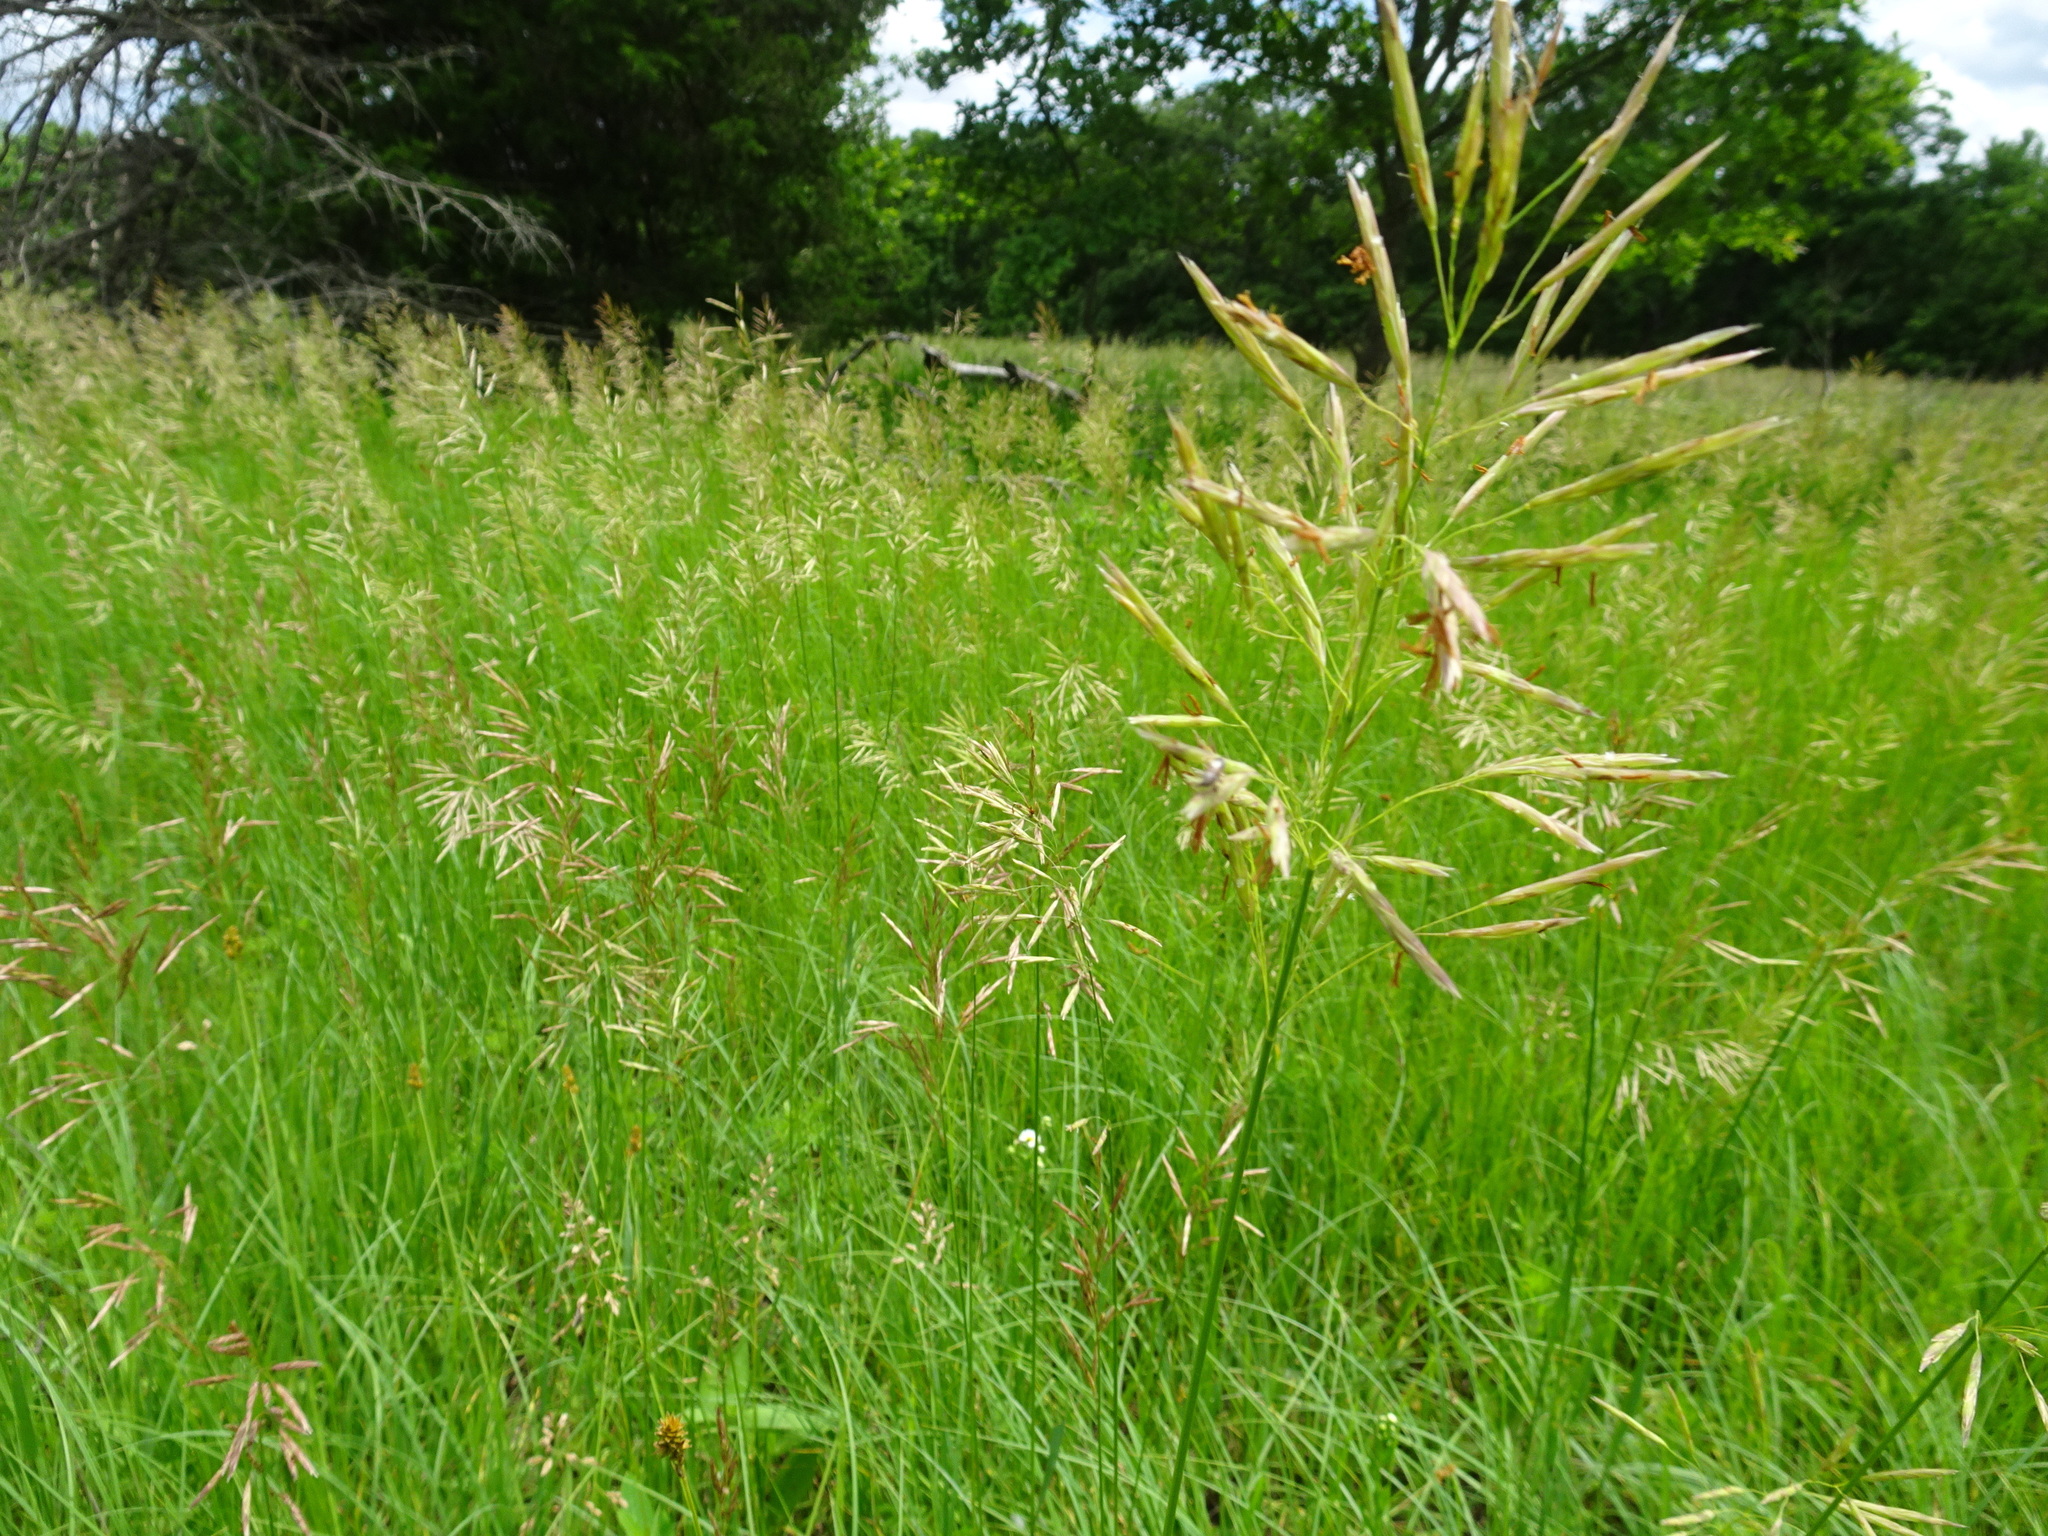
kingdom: Plantae
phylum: Tracheophyta
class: Liliopsida
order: Poales
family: Poaceae
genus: Bromus
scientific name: Bromus inermis
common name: Smooth brome
